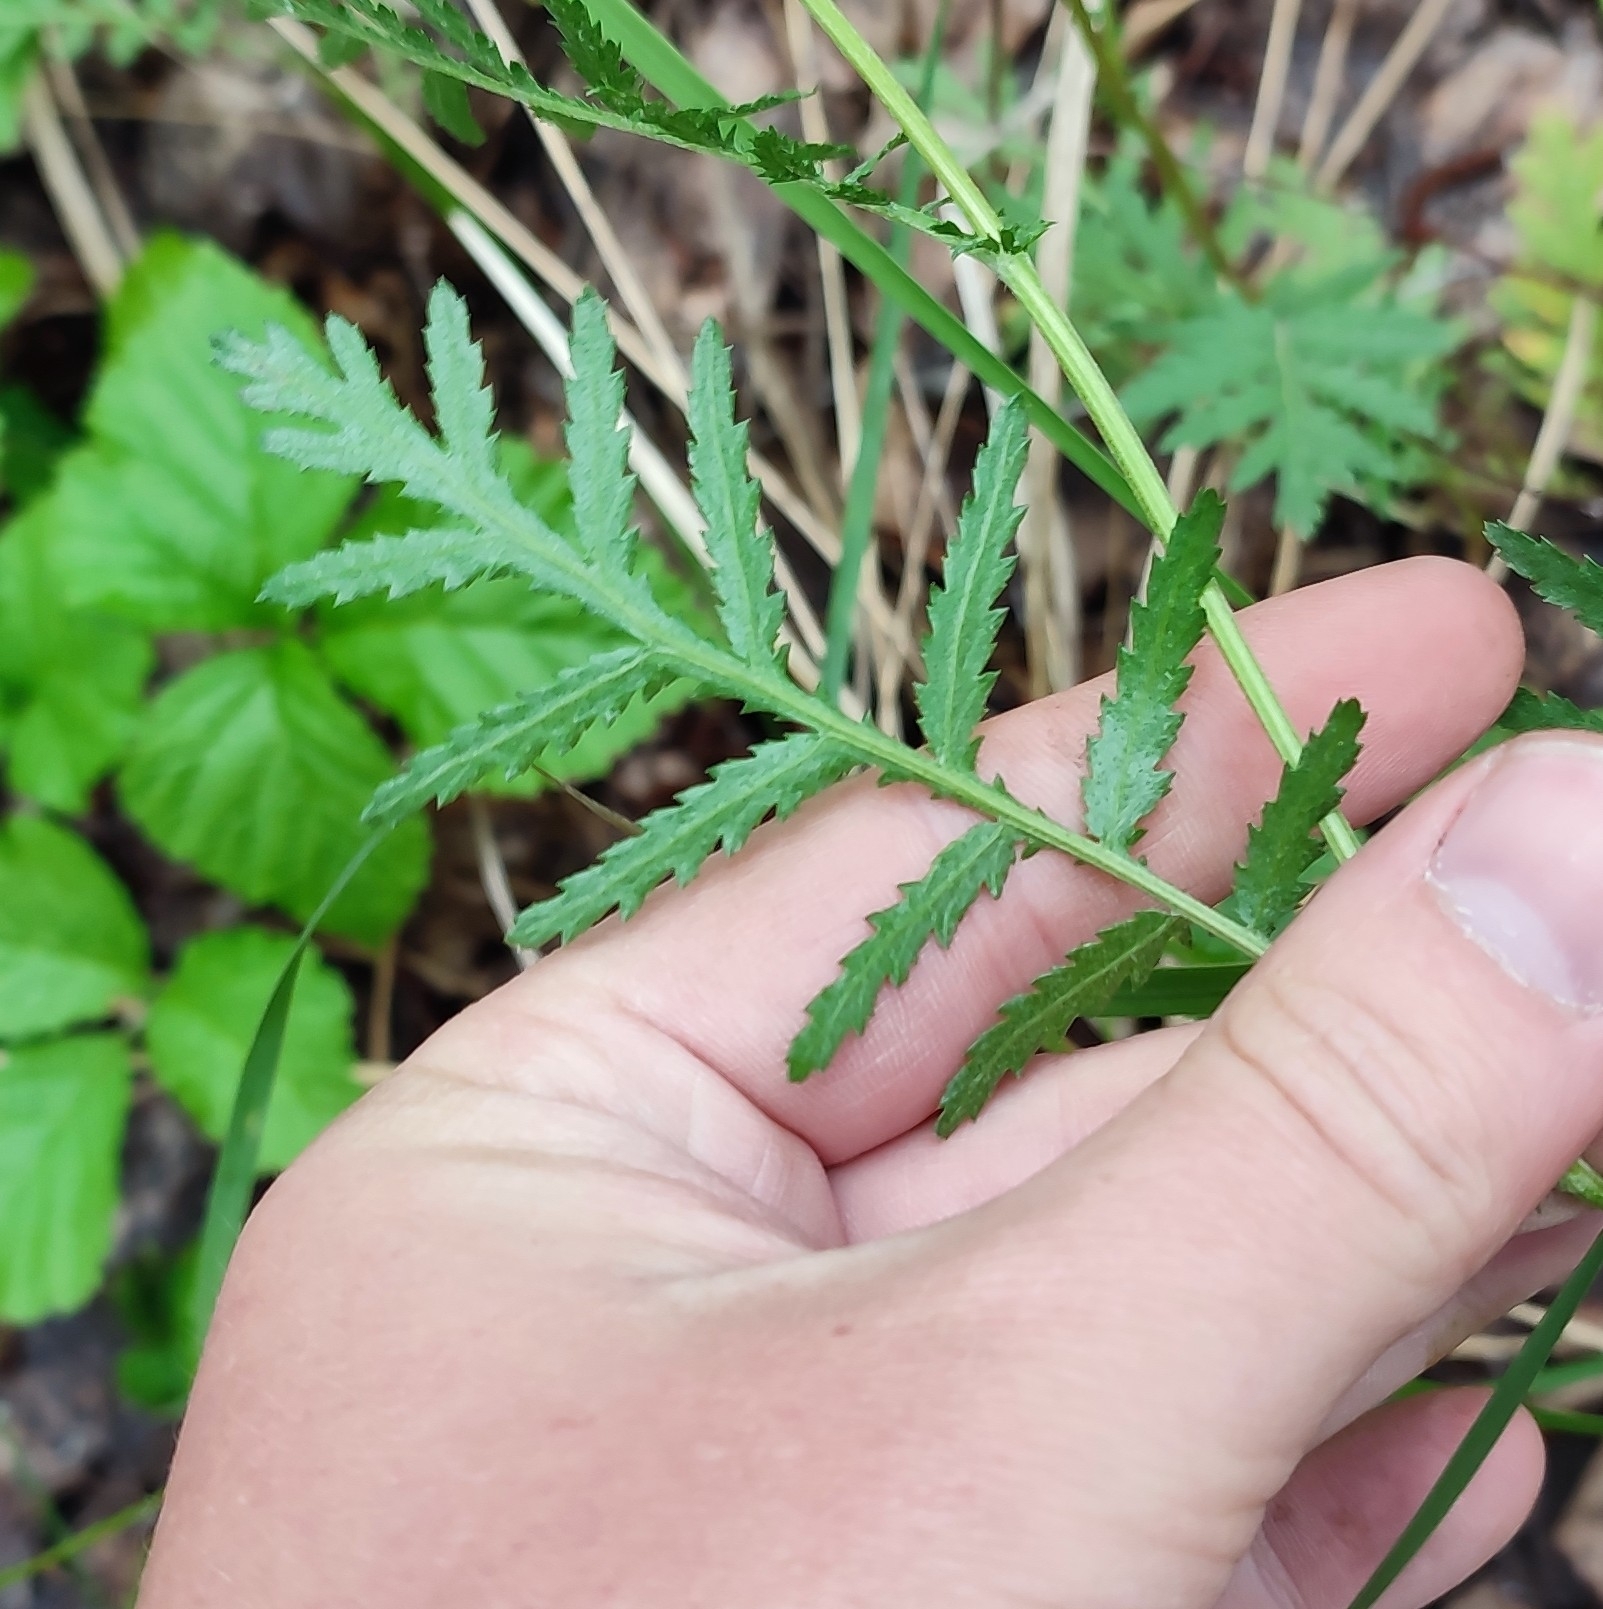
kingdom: Plantae
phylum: Tracheophyta
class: Magnoliopsida
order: Asterales
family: Asteraceae
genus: Tanacetum
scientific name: Tanacetum vulgare
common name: Common tansy
